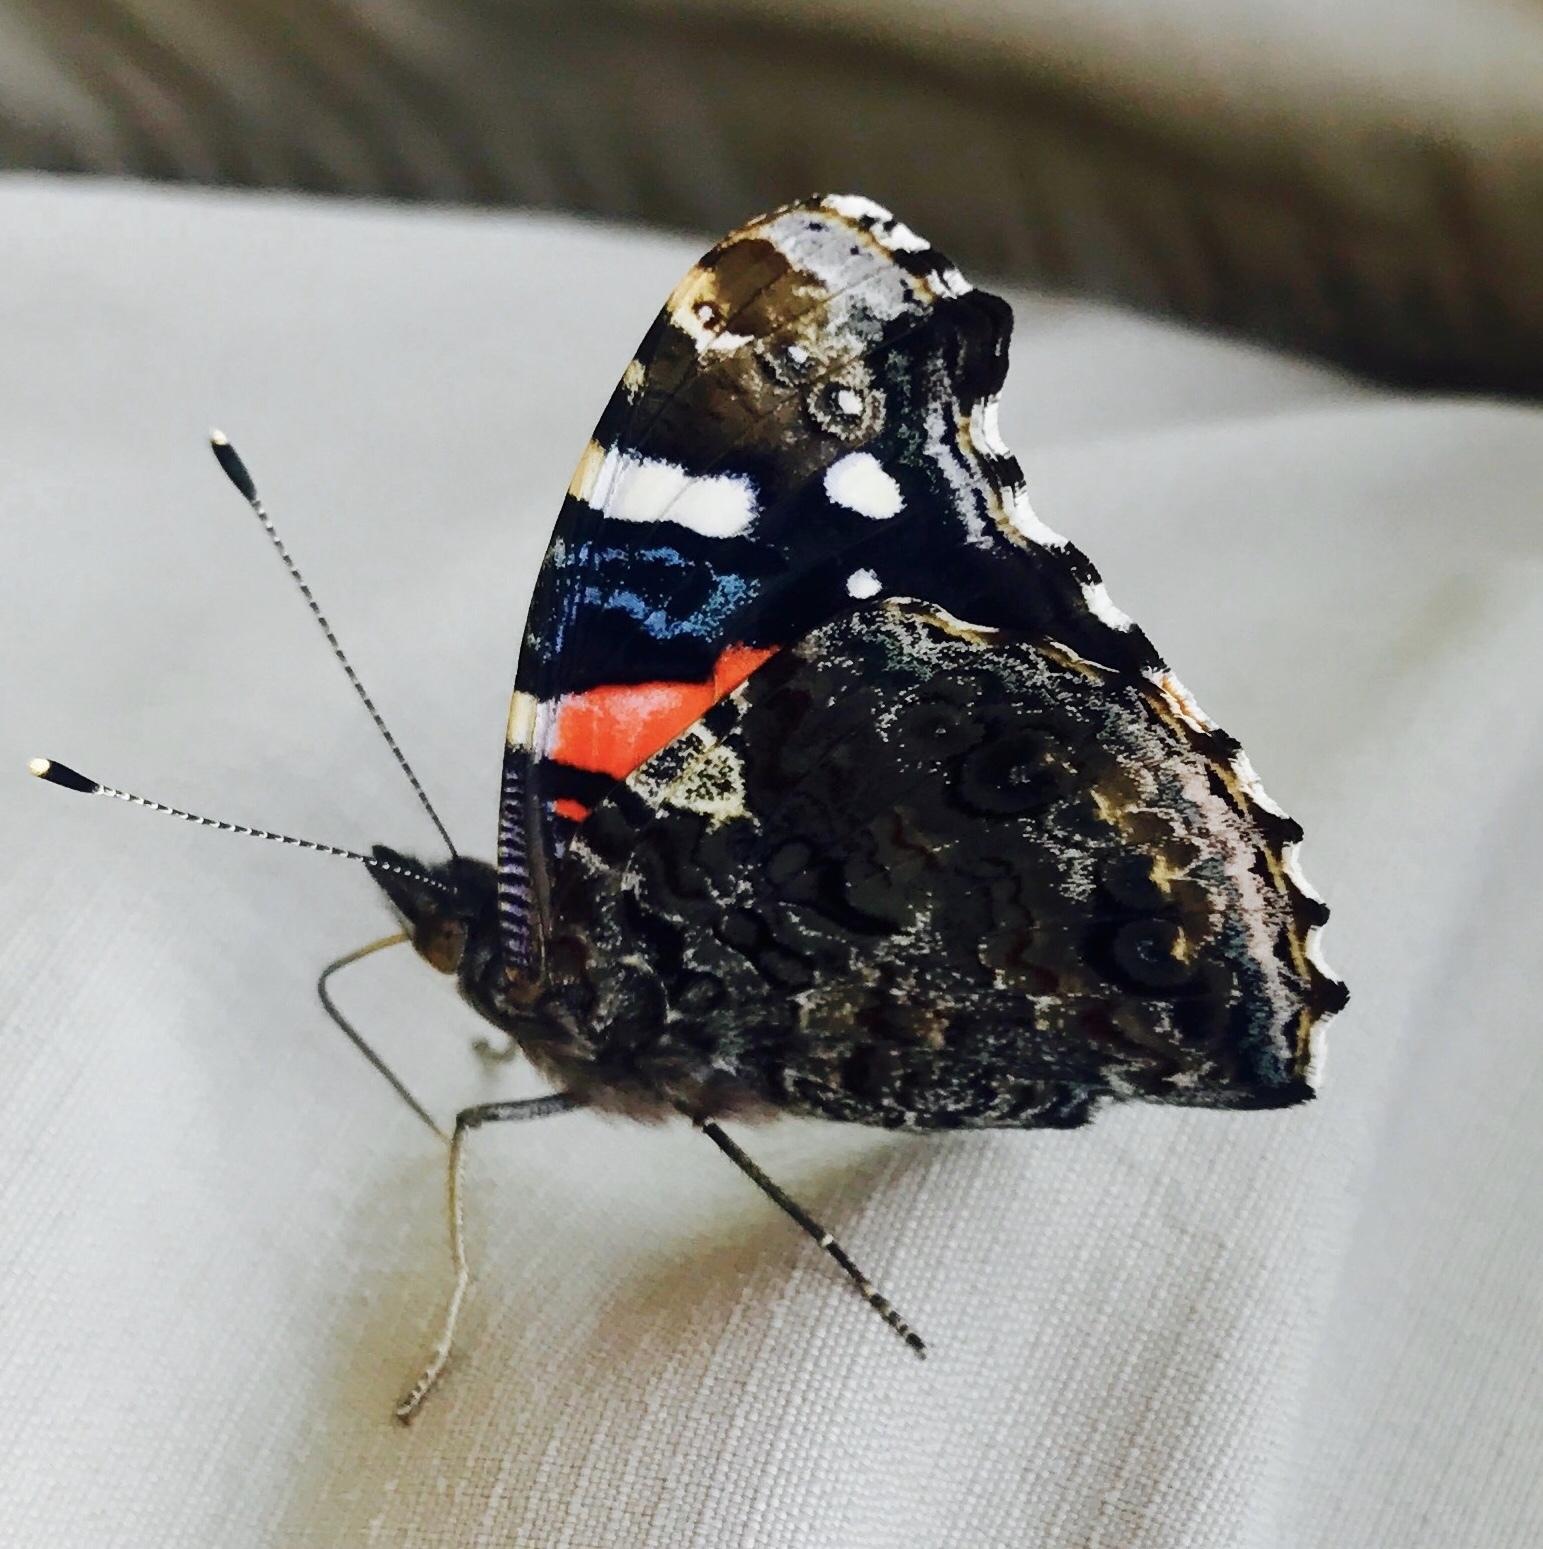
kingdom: Animalia
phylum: Arthropoda
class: Insecta
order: Lepidoptera
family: Nymphalidae
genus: Vanessa
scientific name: Vanessa atalanta
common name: Red admiral
